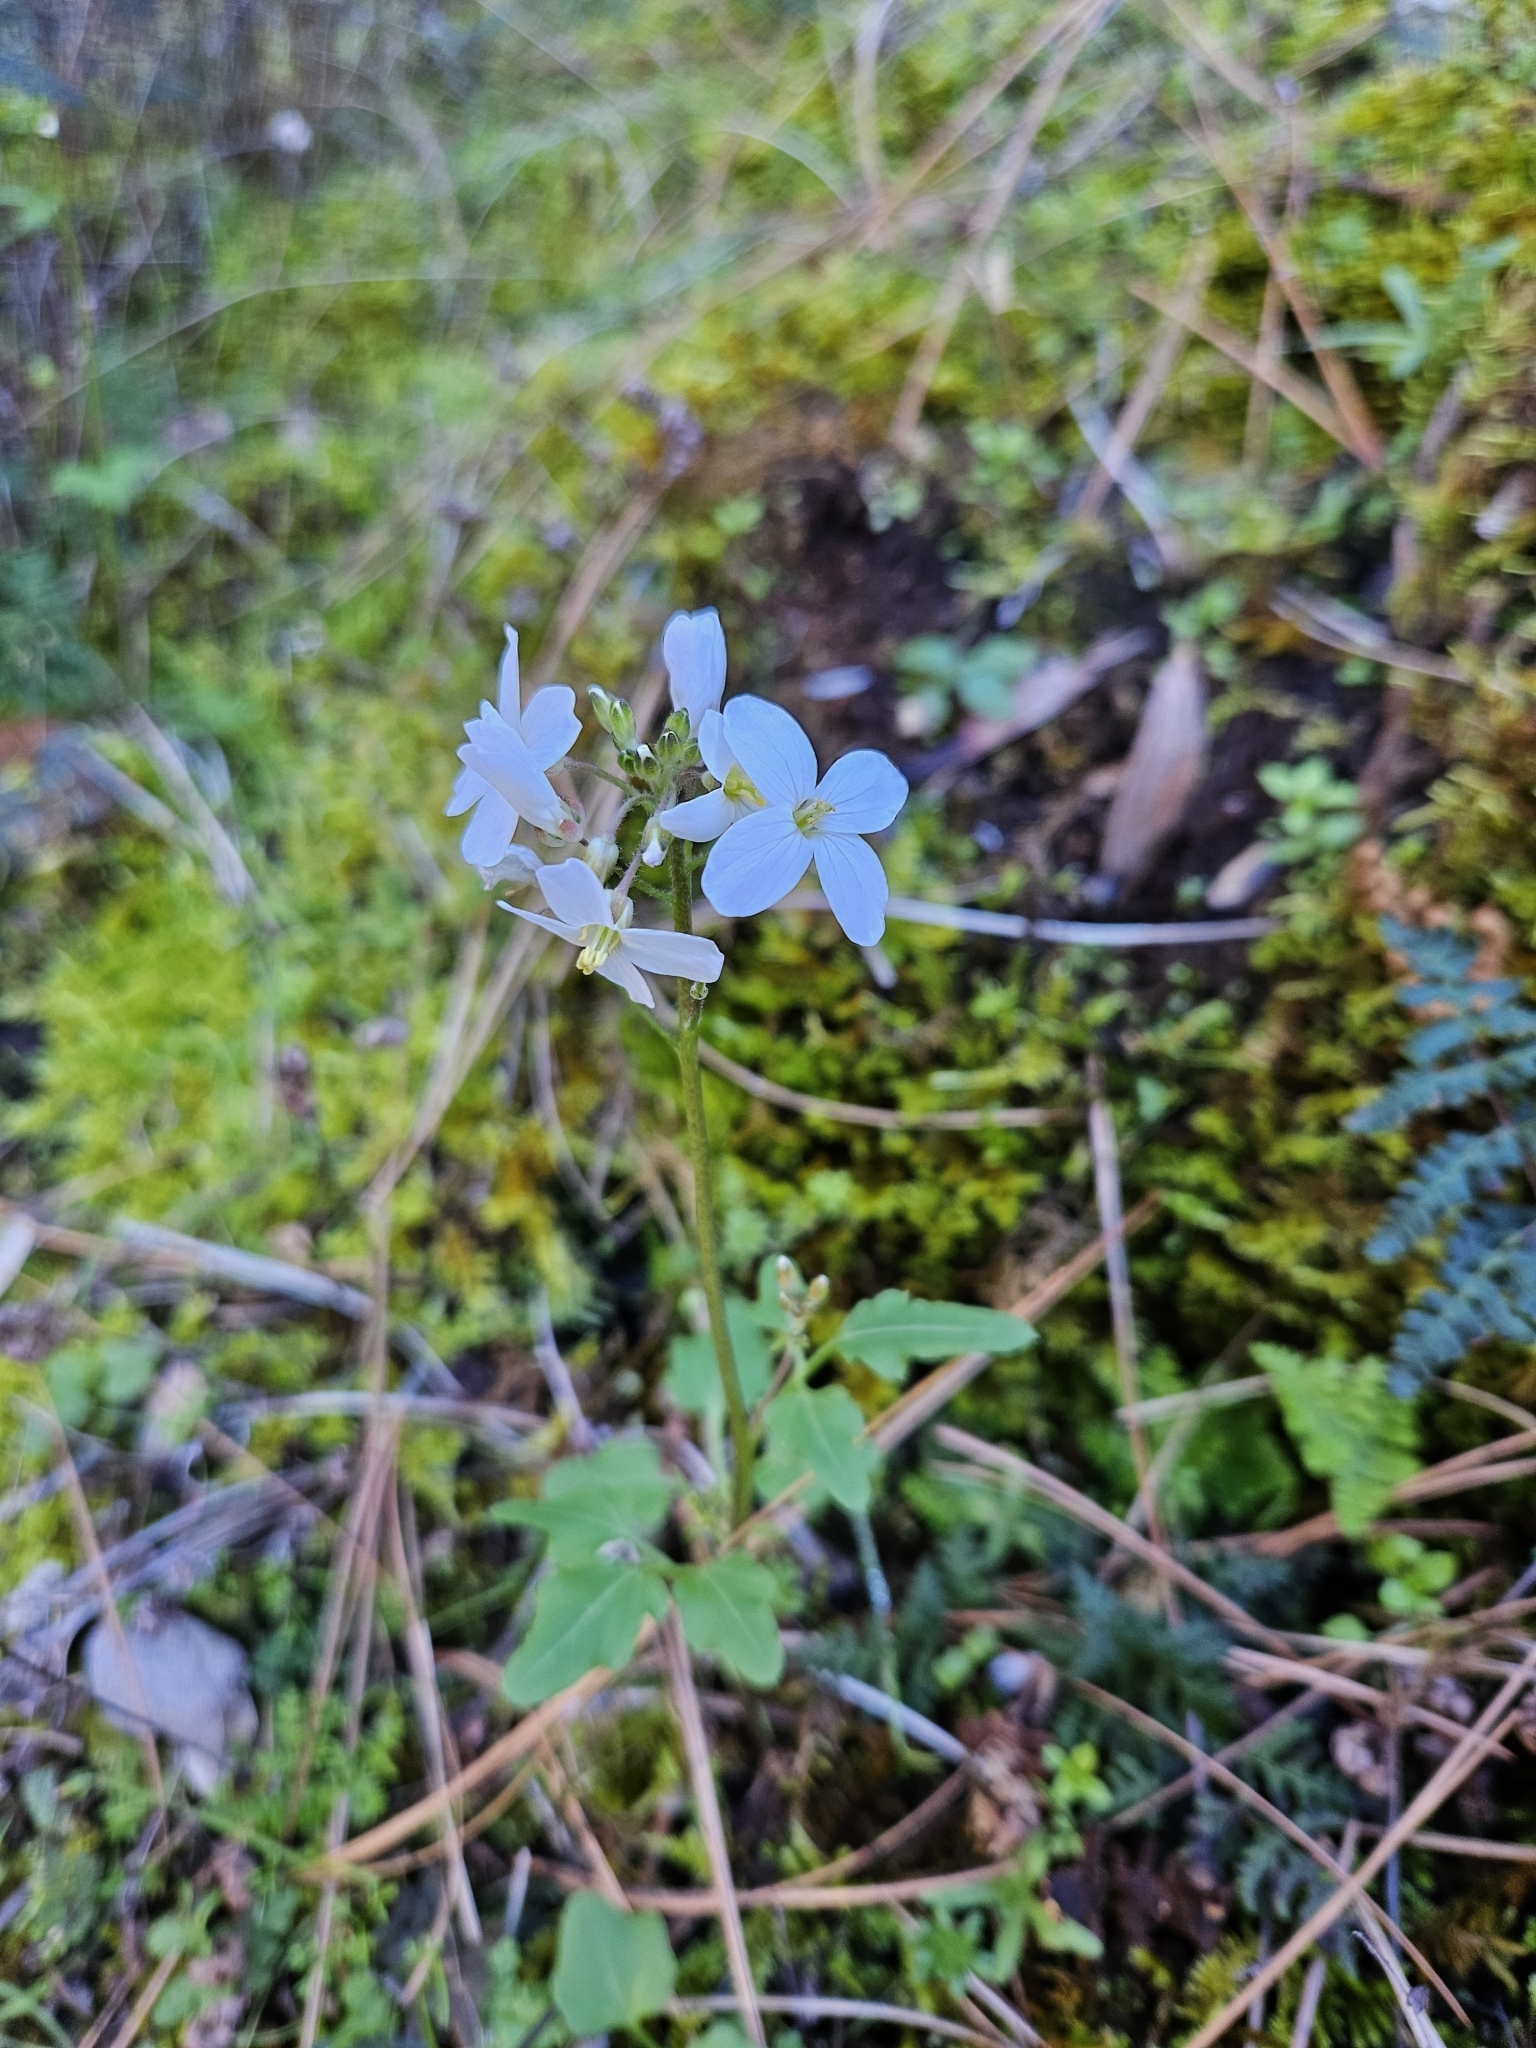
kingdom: Plantae
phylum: Tracheophyta
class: Magnoliopsida
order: Brassicales
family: Brassicaceae
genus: Cardamine
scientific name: Cardamine californica
